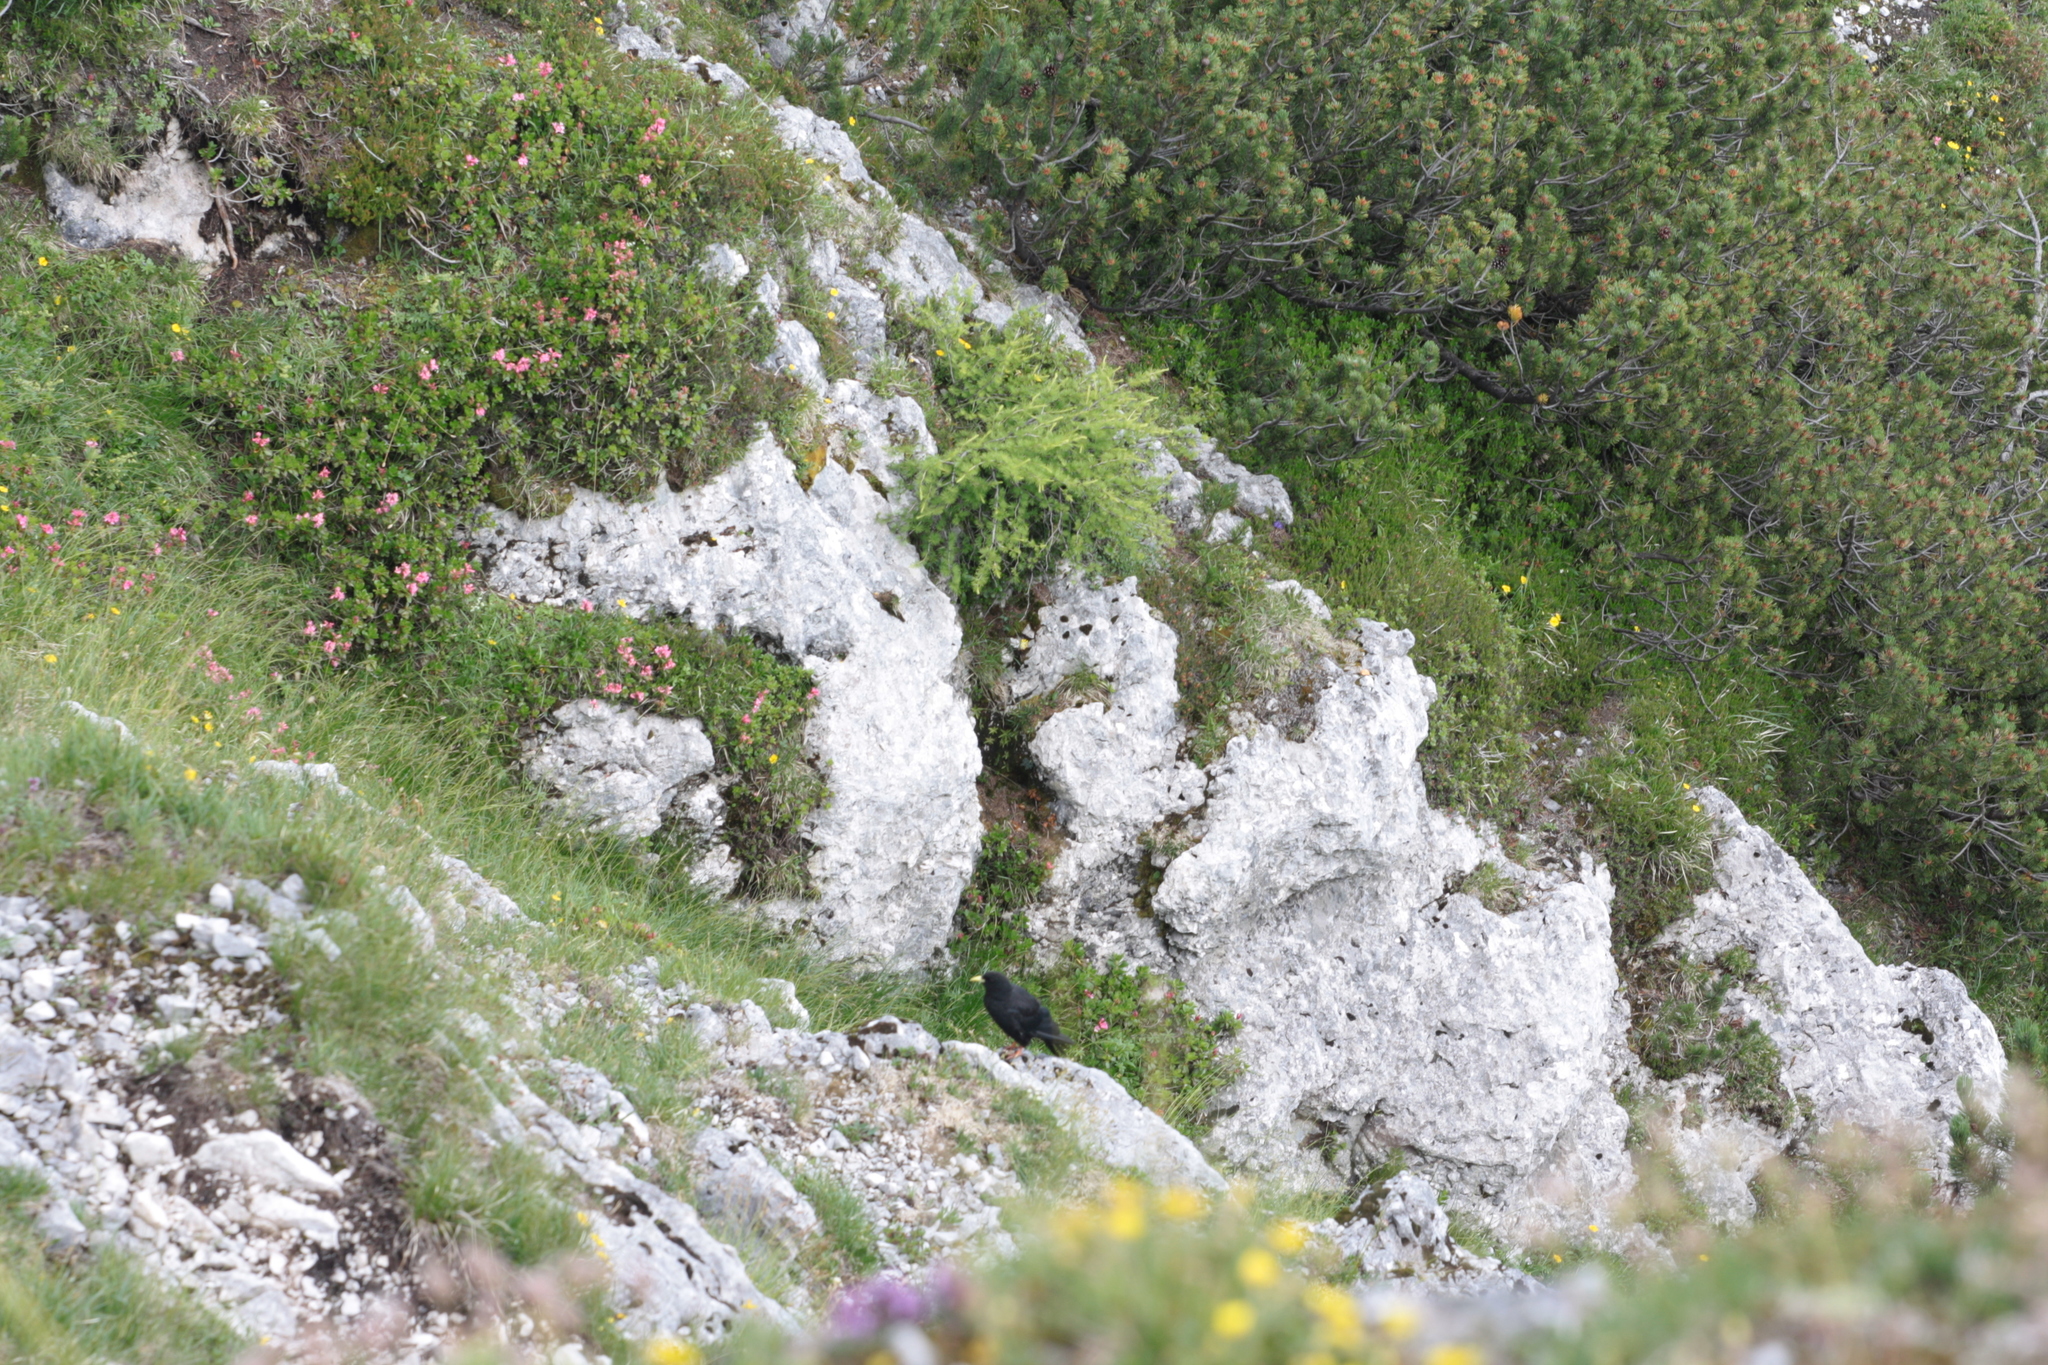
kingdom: Animalia
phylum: Chordata
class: Aves
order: Passeriformes
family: Corvidae
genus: Pyrrhocorax
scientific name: Pyrrhocorax graculus
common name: Alpine chough
